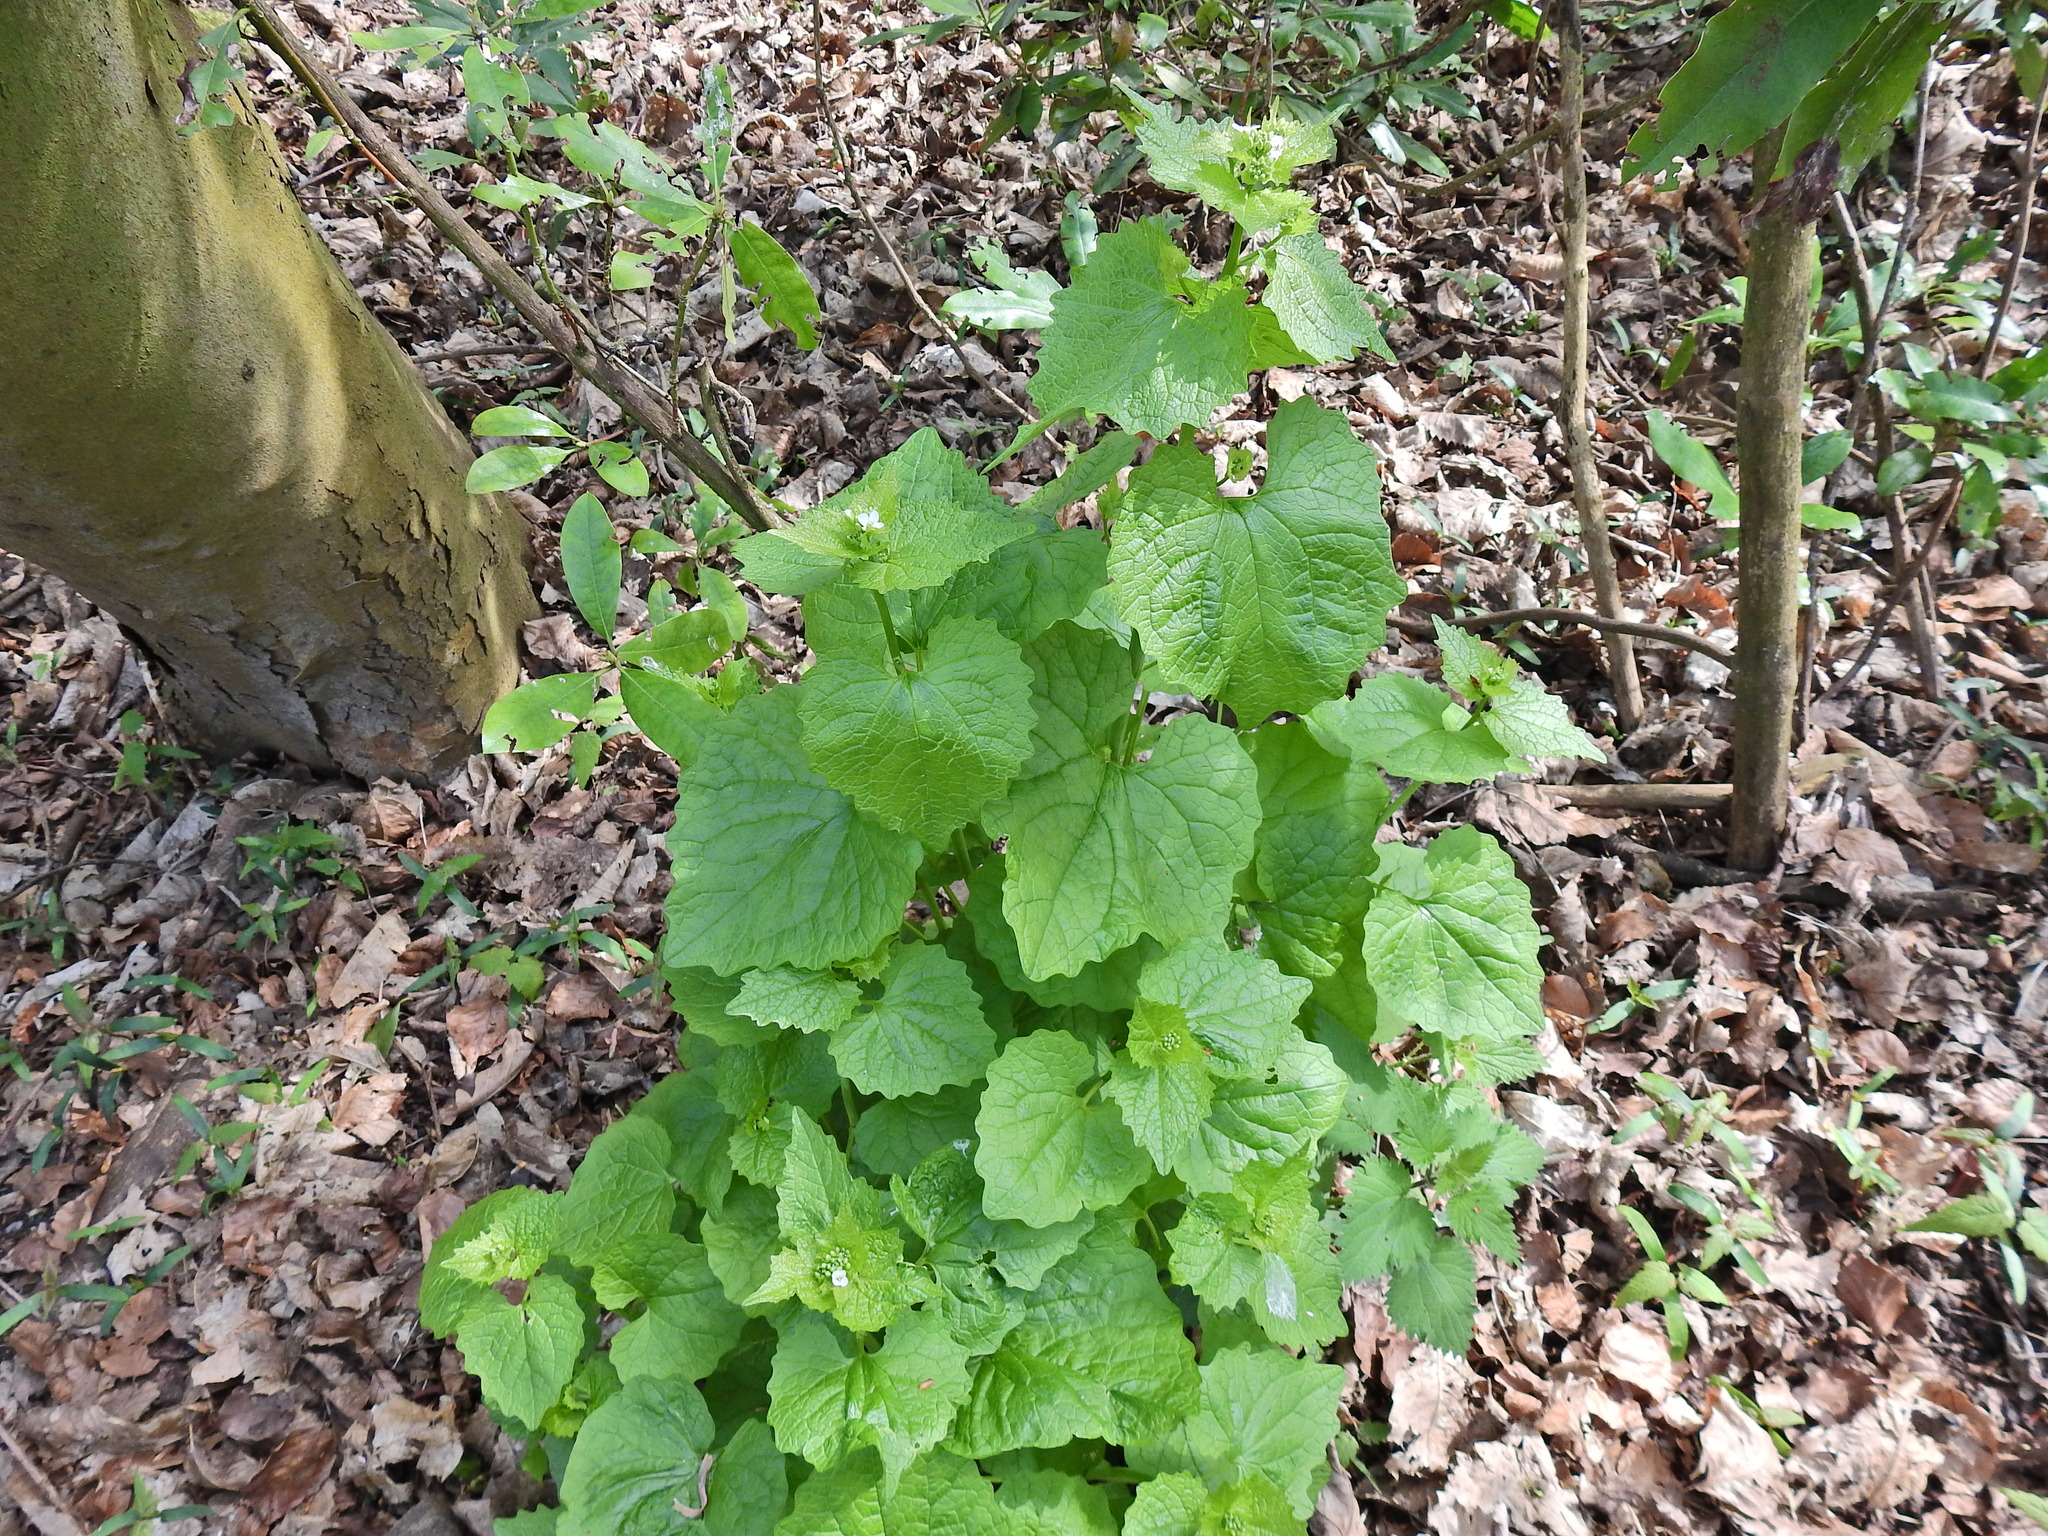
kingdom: Plantae
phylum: Tracheophyta
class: Magnoliopsida
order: Brassicales
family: Brassicaceae
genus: Alliaria
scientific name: Alliaria petiolata
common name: Garlic mustard
